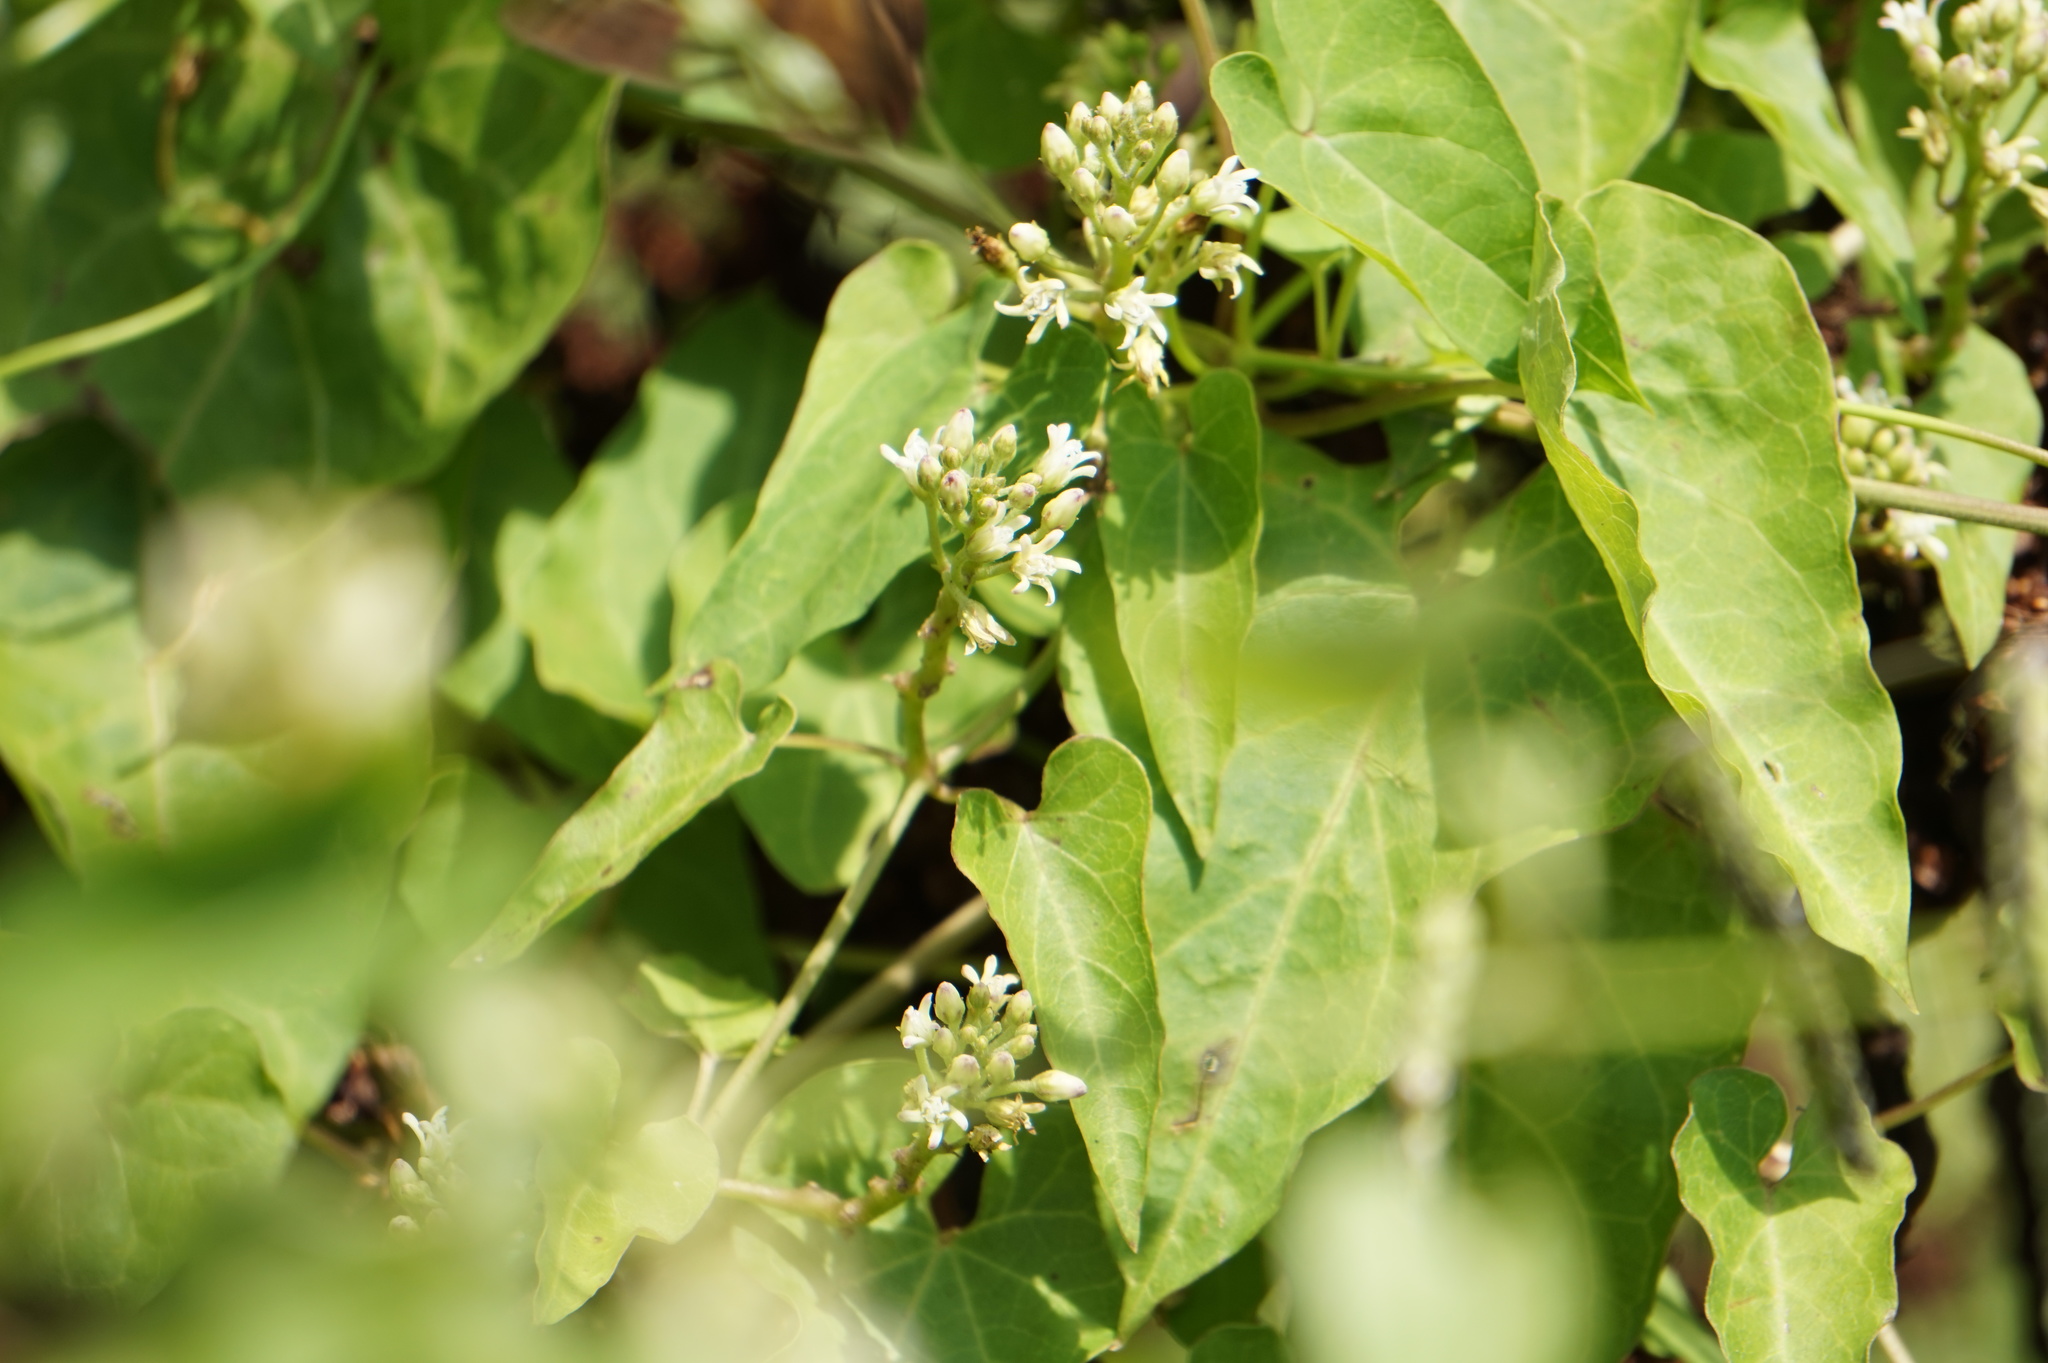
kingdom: Plantae
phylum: Tracheophyta
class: Magnoliopsida
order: Gentianales
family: Apocynaceae
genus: Cynanchum
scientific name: Cynanchum laeve
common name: Sandvine
